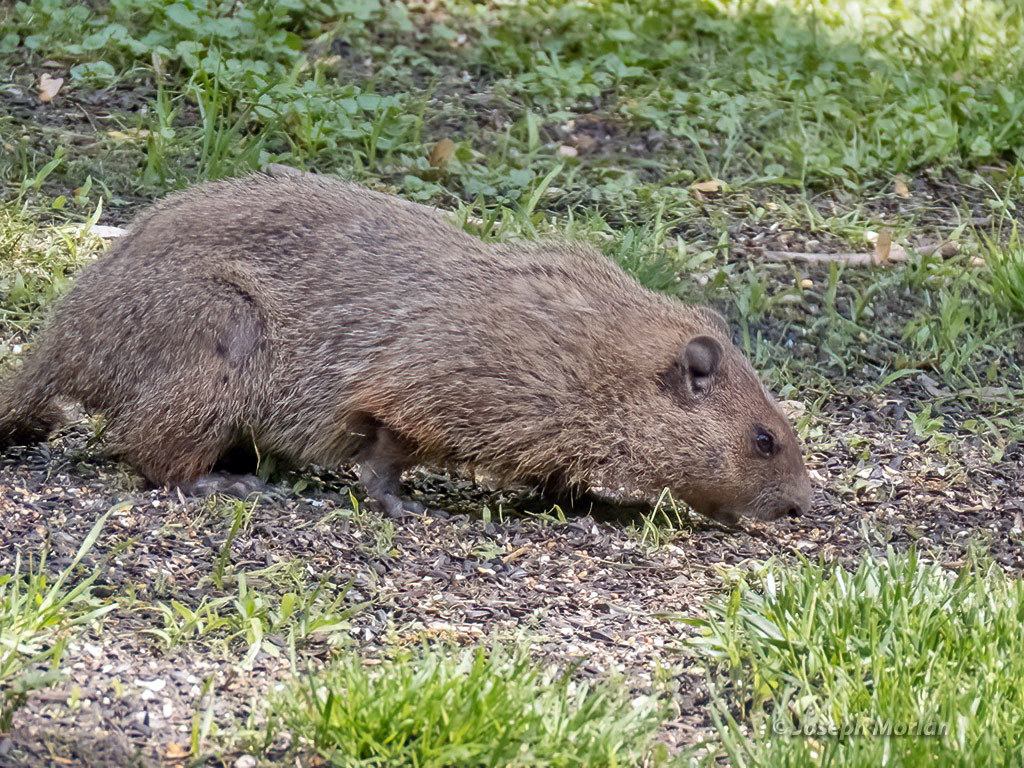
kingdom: Animalia
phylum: Chordata
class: Mammalia
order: Rodentia
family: Sciuridae
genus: Marmota
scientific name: Marmota monax
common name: Groundhog
